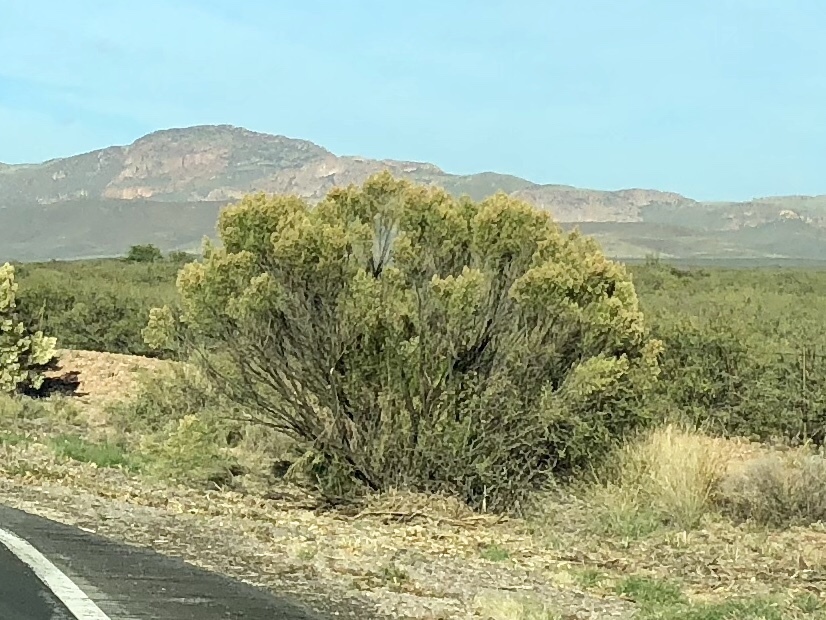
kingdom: Plantae
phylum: Tracheophyta
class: Magnoliopsida
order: Asterales
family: Asteraceae
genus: Baccharis
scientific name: Baccharis sarothroides
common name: Desert-broom
